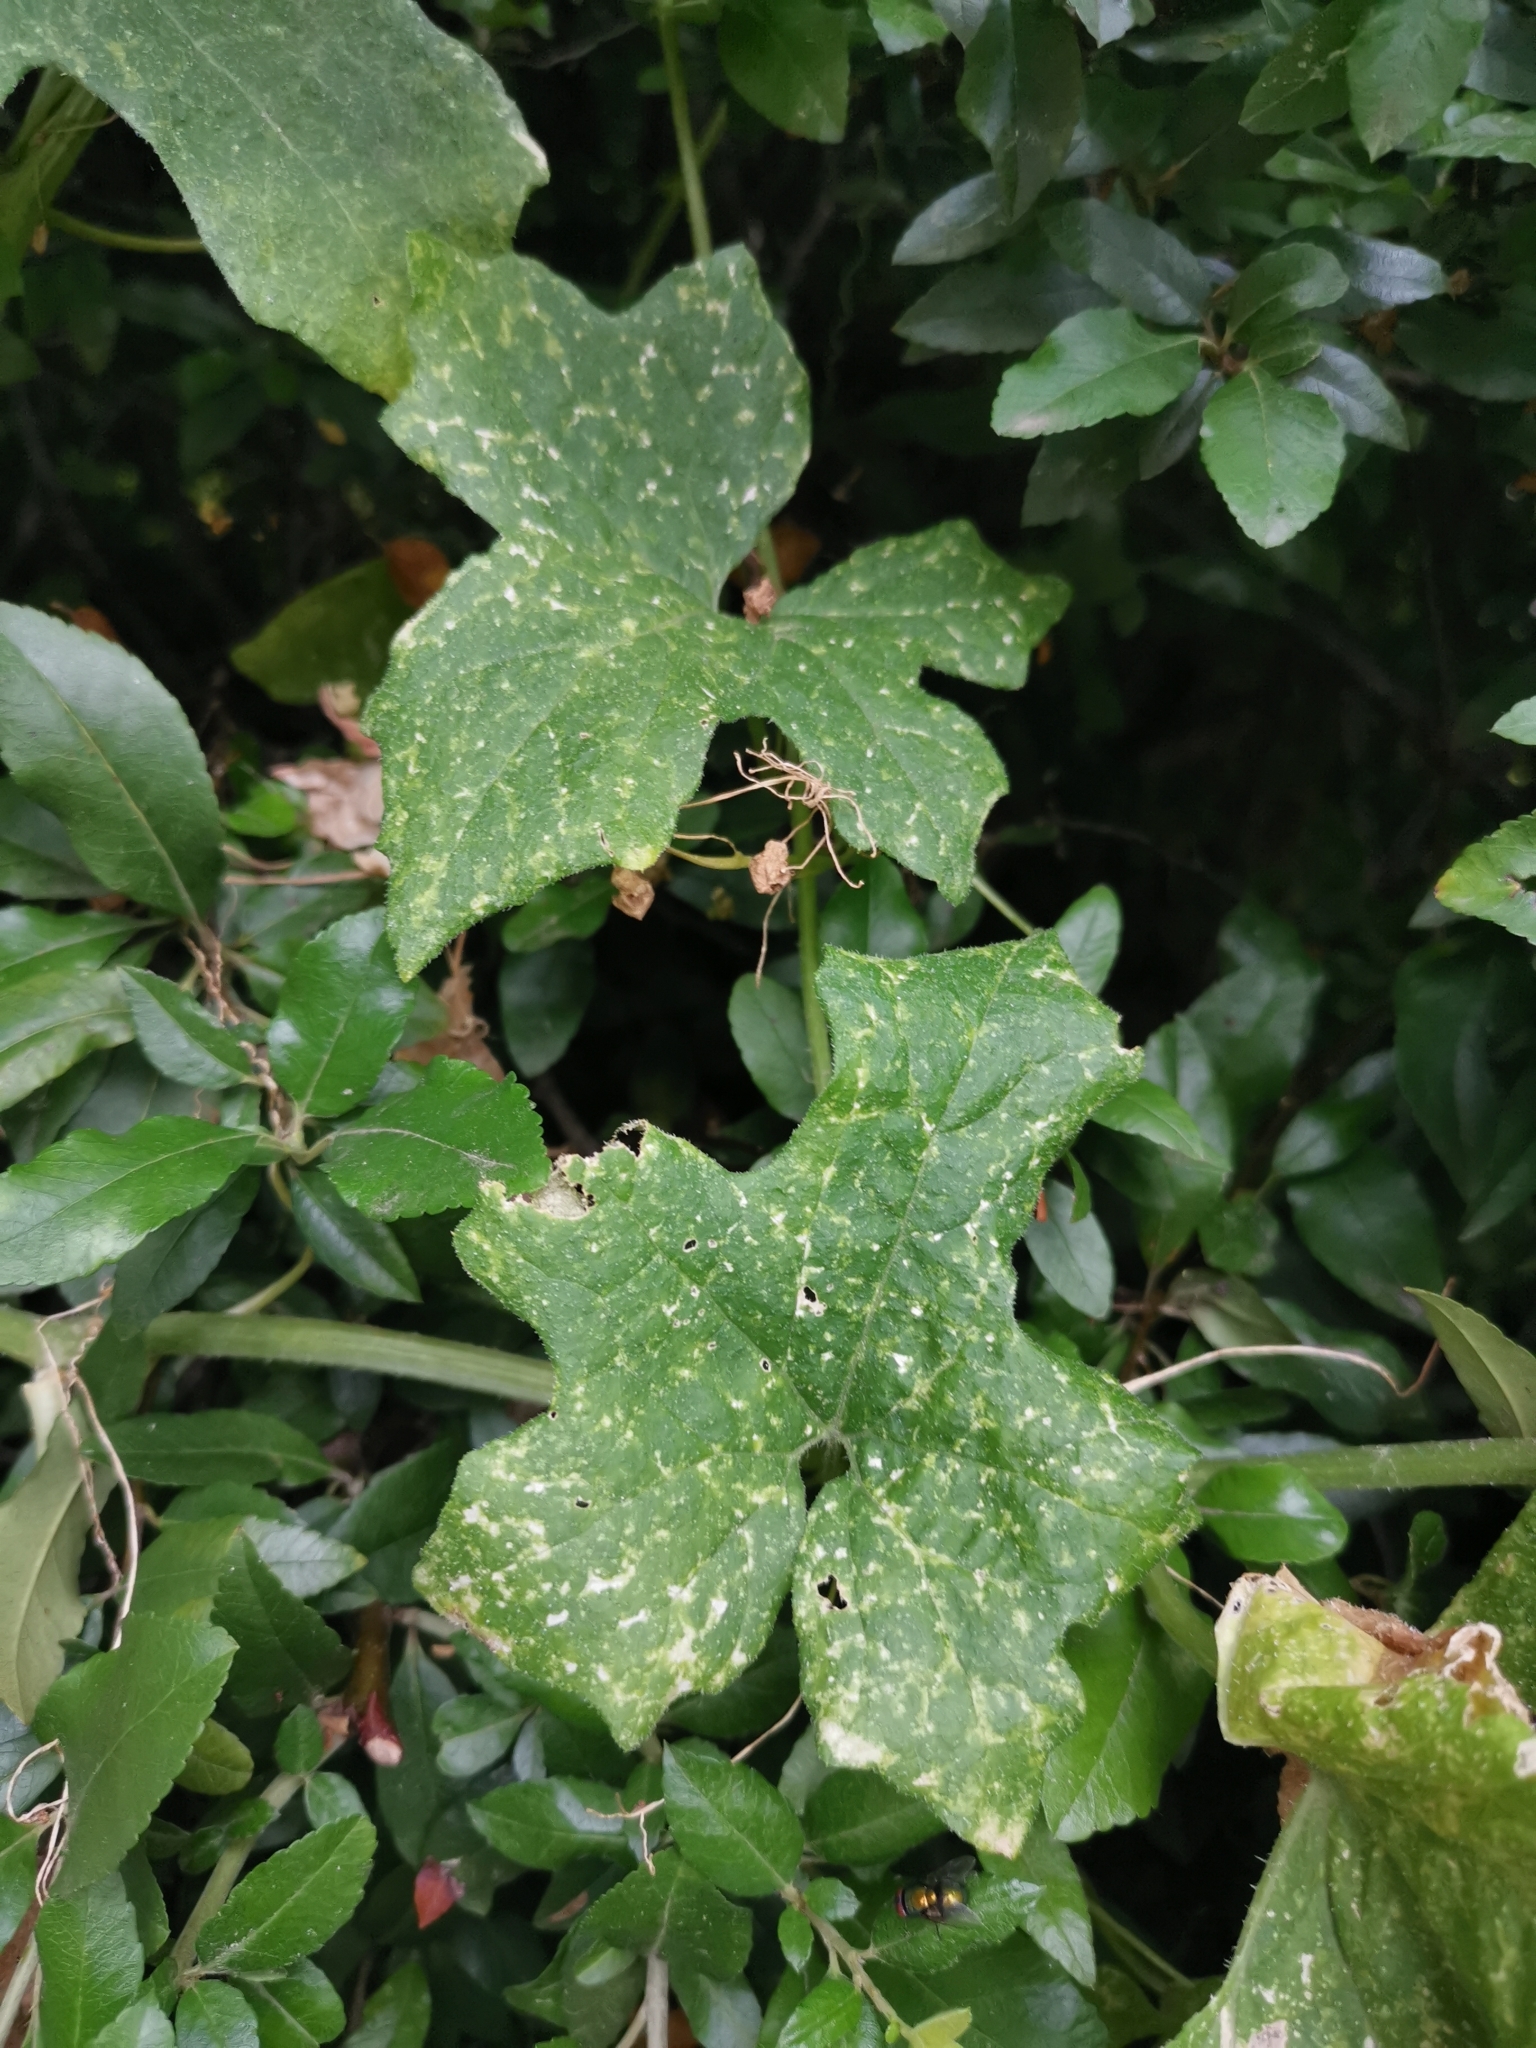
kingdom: Plantae
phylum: Tracheophyta
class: Magnoliopsida
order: Cucurbitales
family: Cucurbitaceae
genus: Bryonia
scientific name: Bryonia cretica
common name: Cretan bryony
